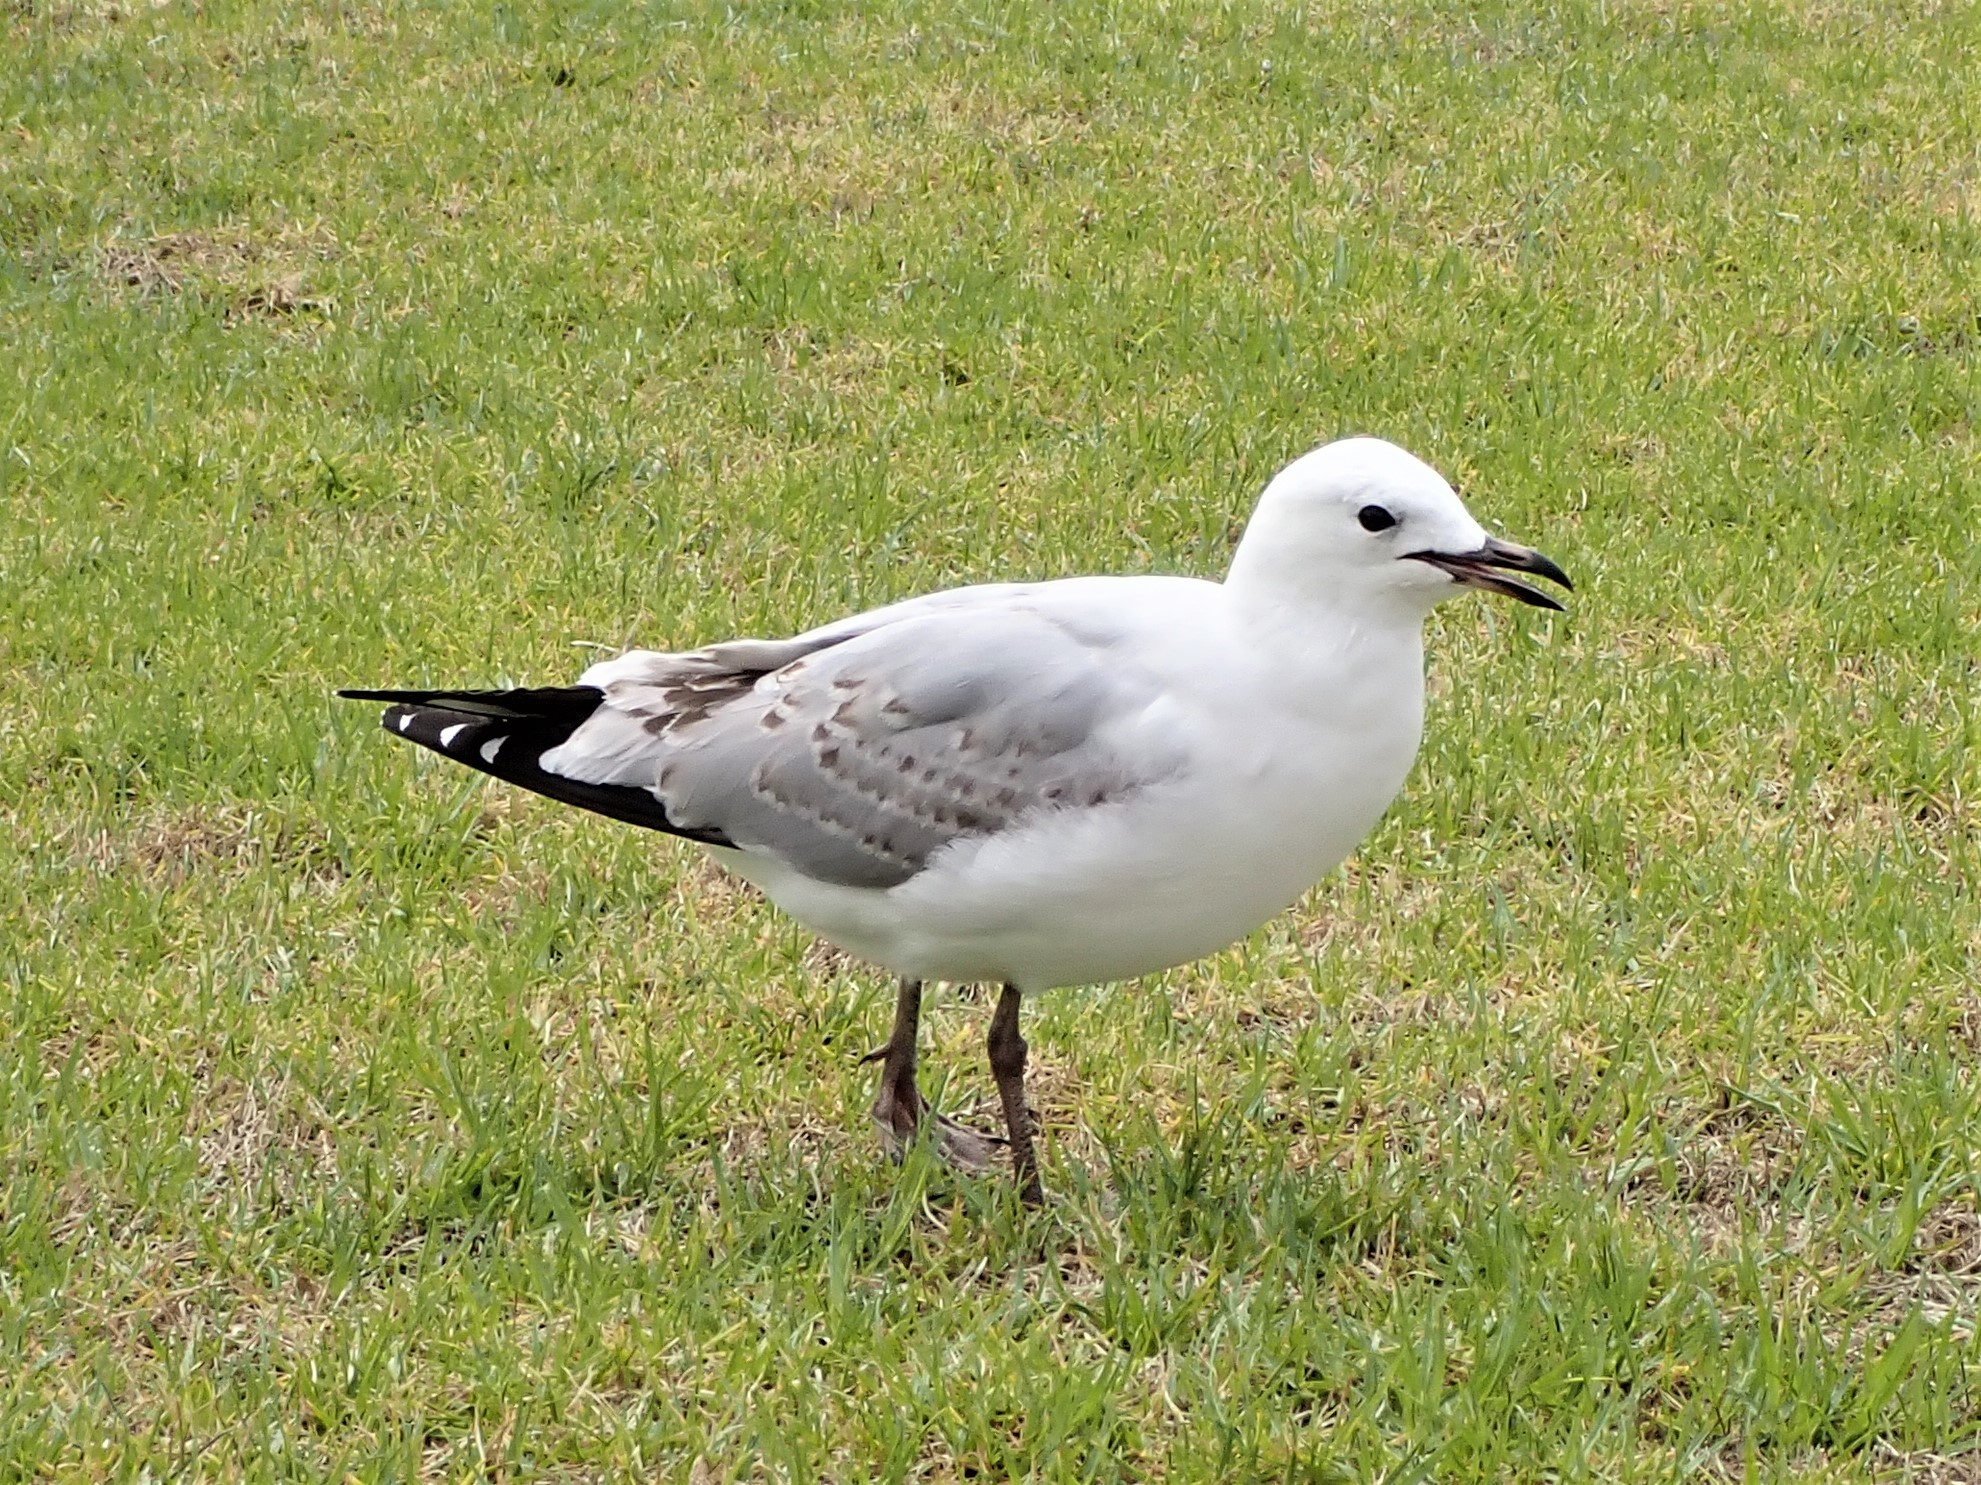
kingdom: Animalia
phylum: Chordata
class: Aves
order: Charadriiformes
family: Laridae
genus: Chroicocephalus
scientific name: Chroicocephalus novaehollandiae
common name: Silver gull
